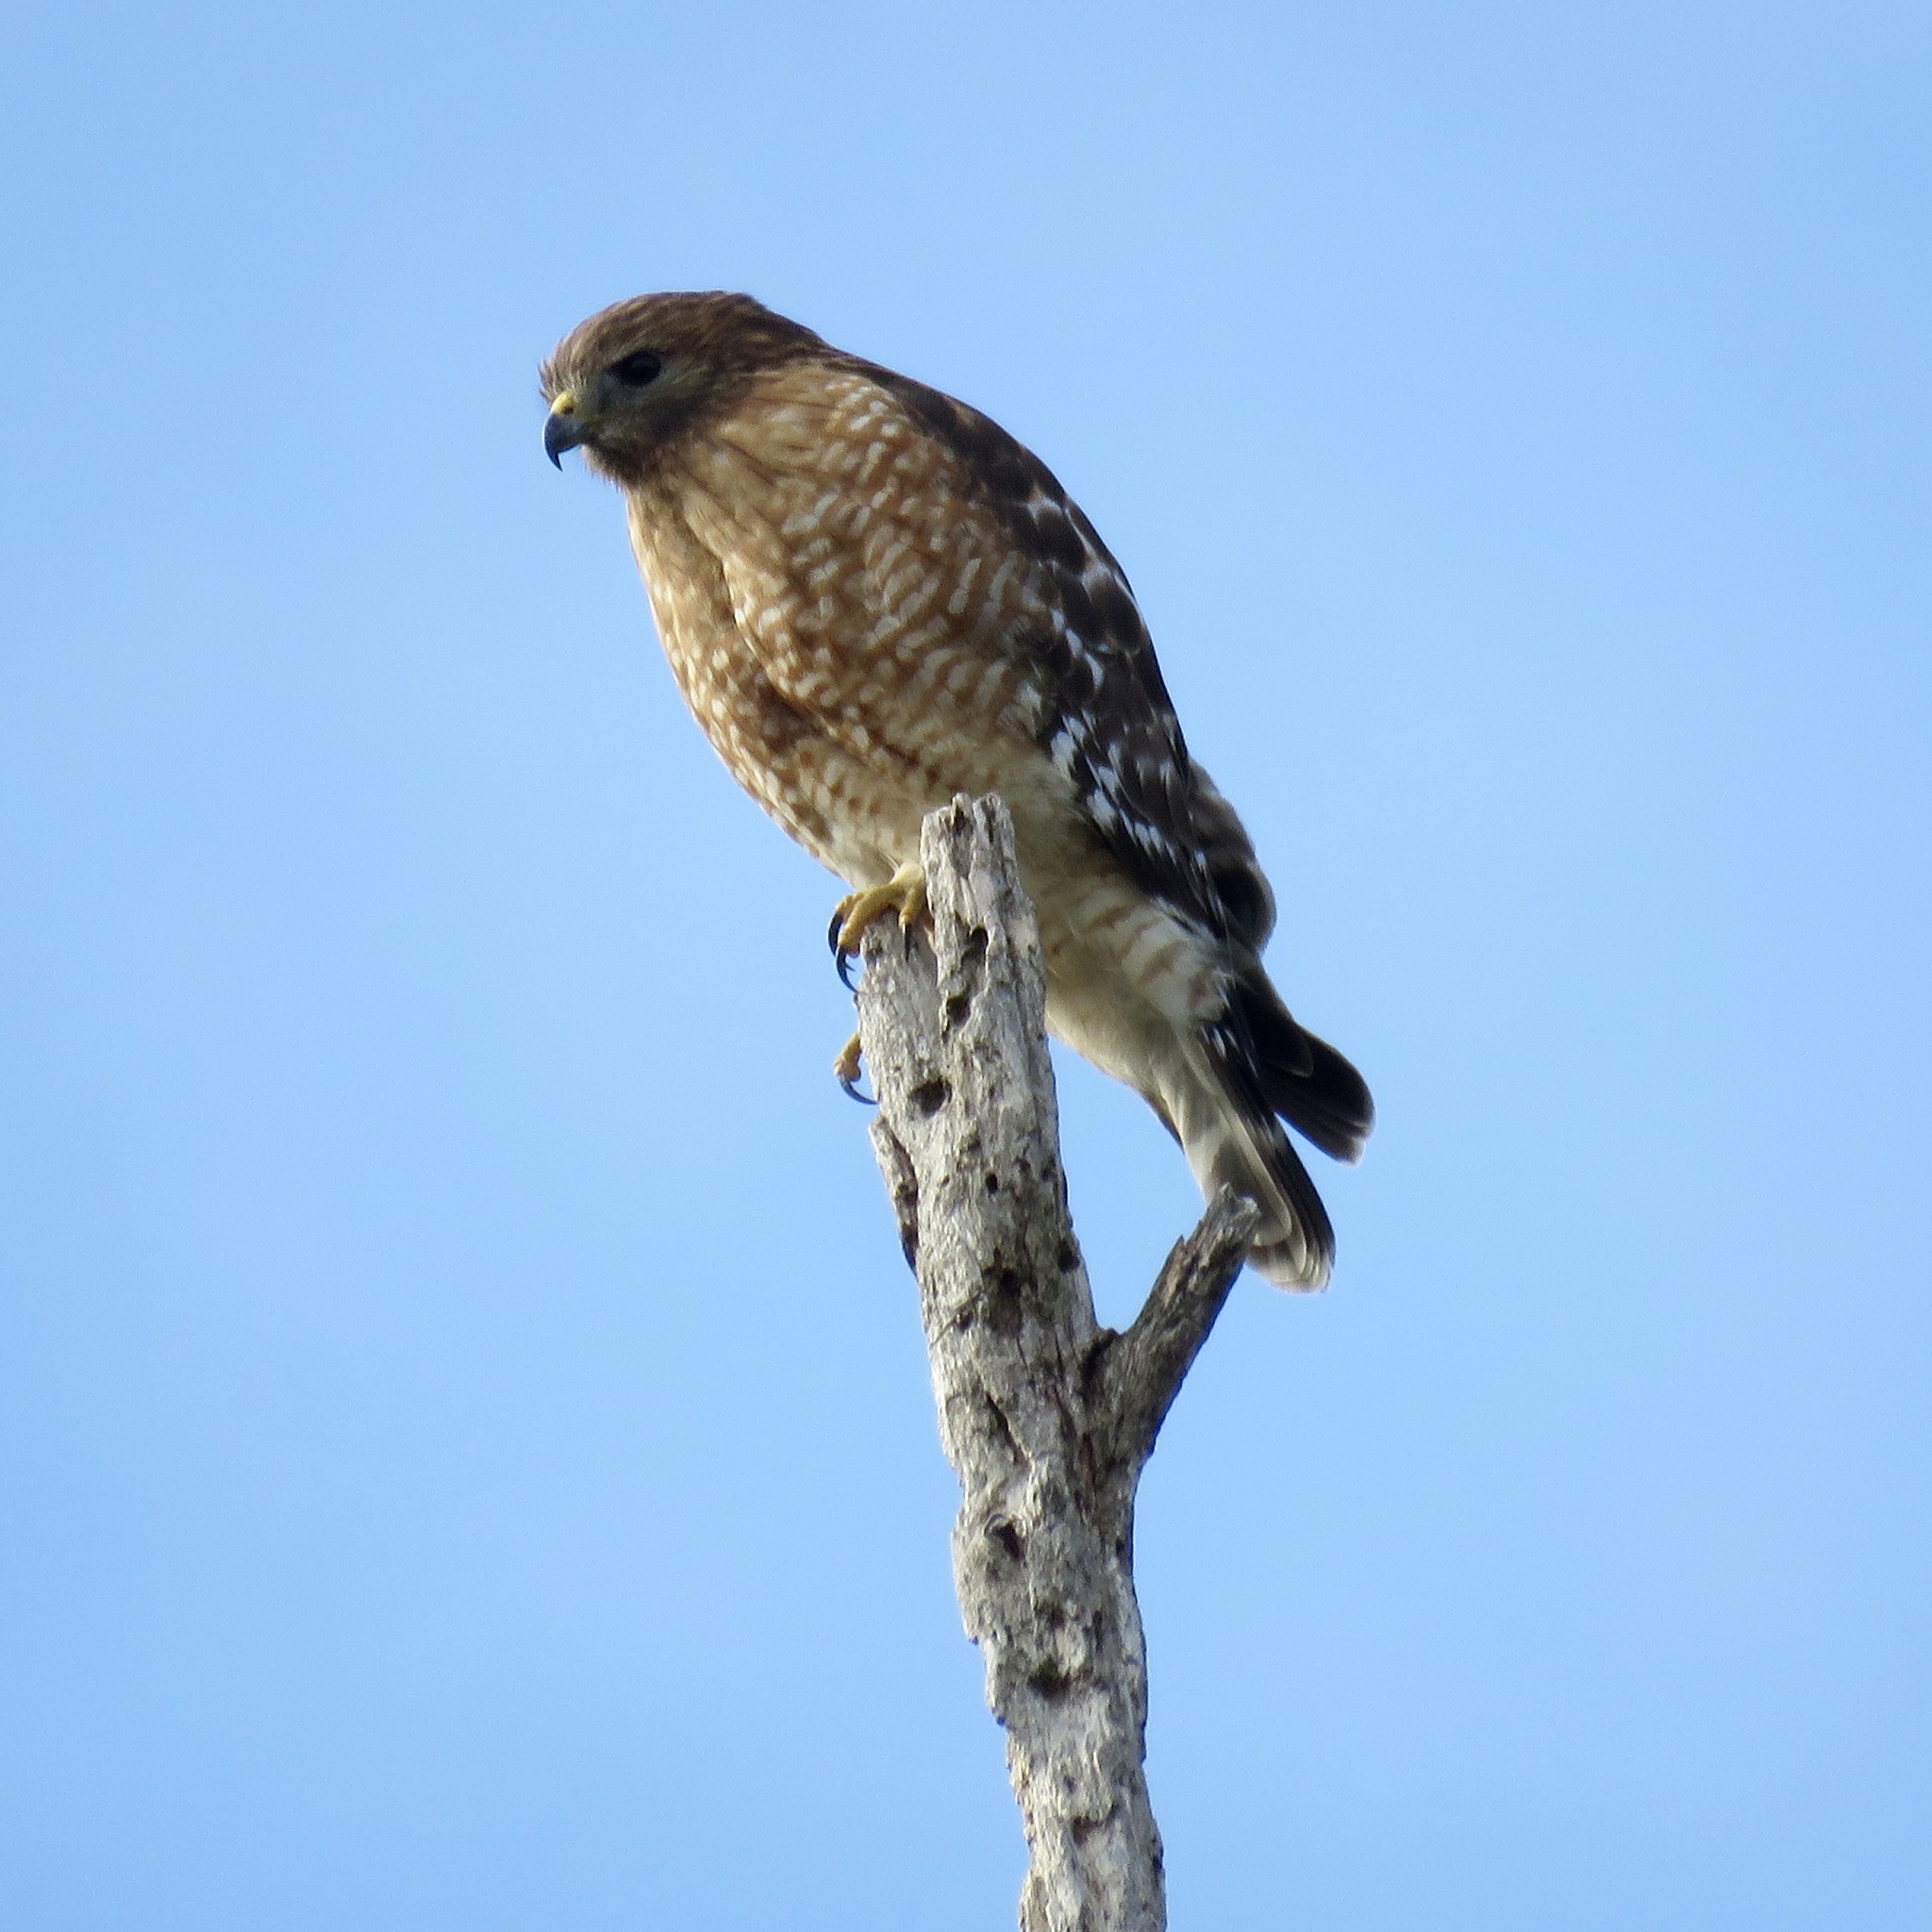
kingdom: Animalia
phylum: Chordata
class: Aves
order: Accipitriformes
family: Accipitridae
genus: Buteo
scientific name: Buteo lineatus
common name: Red-shouldered hawk
